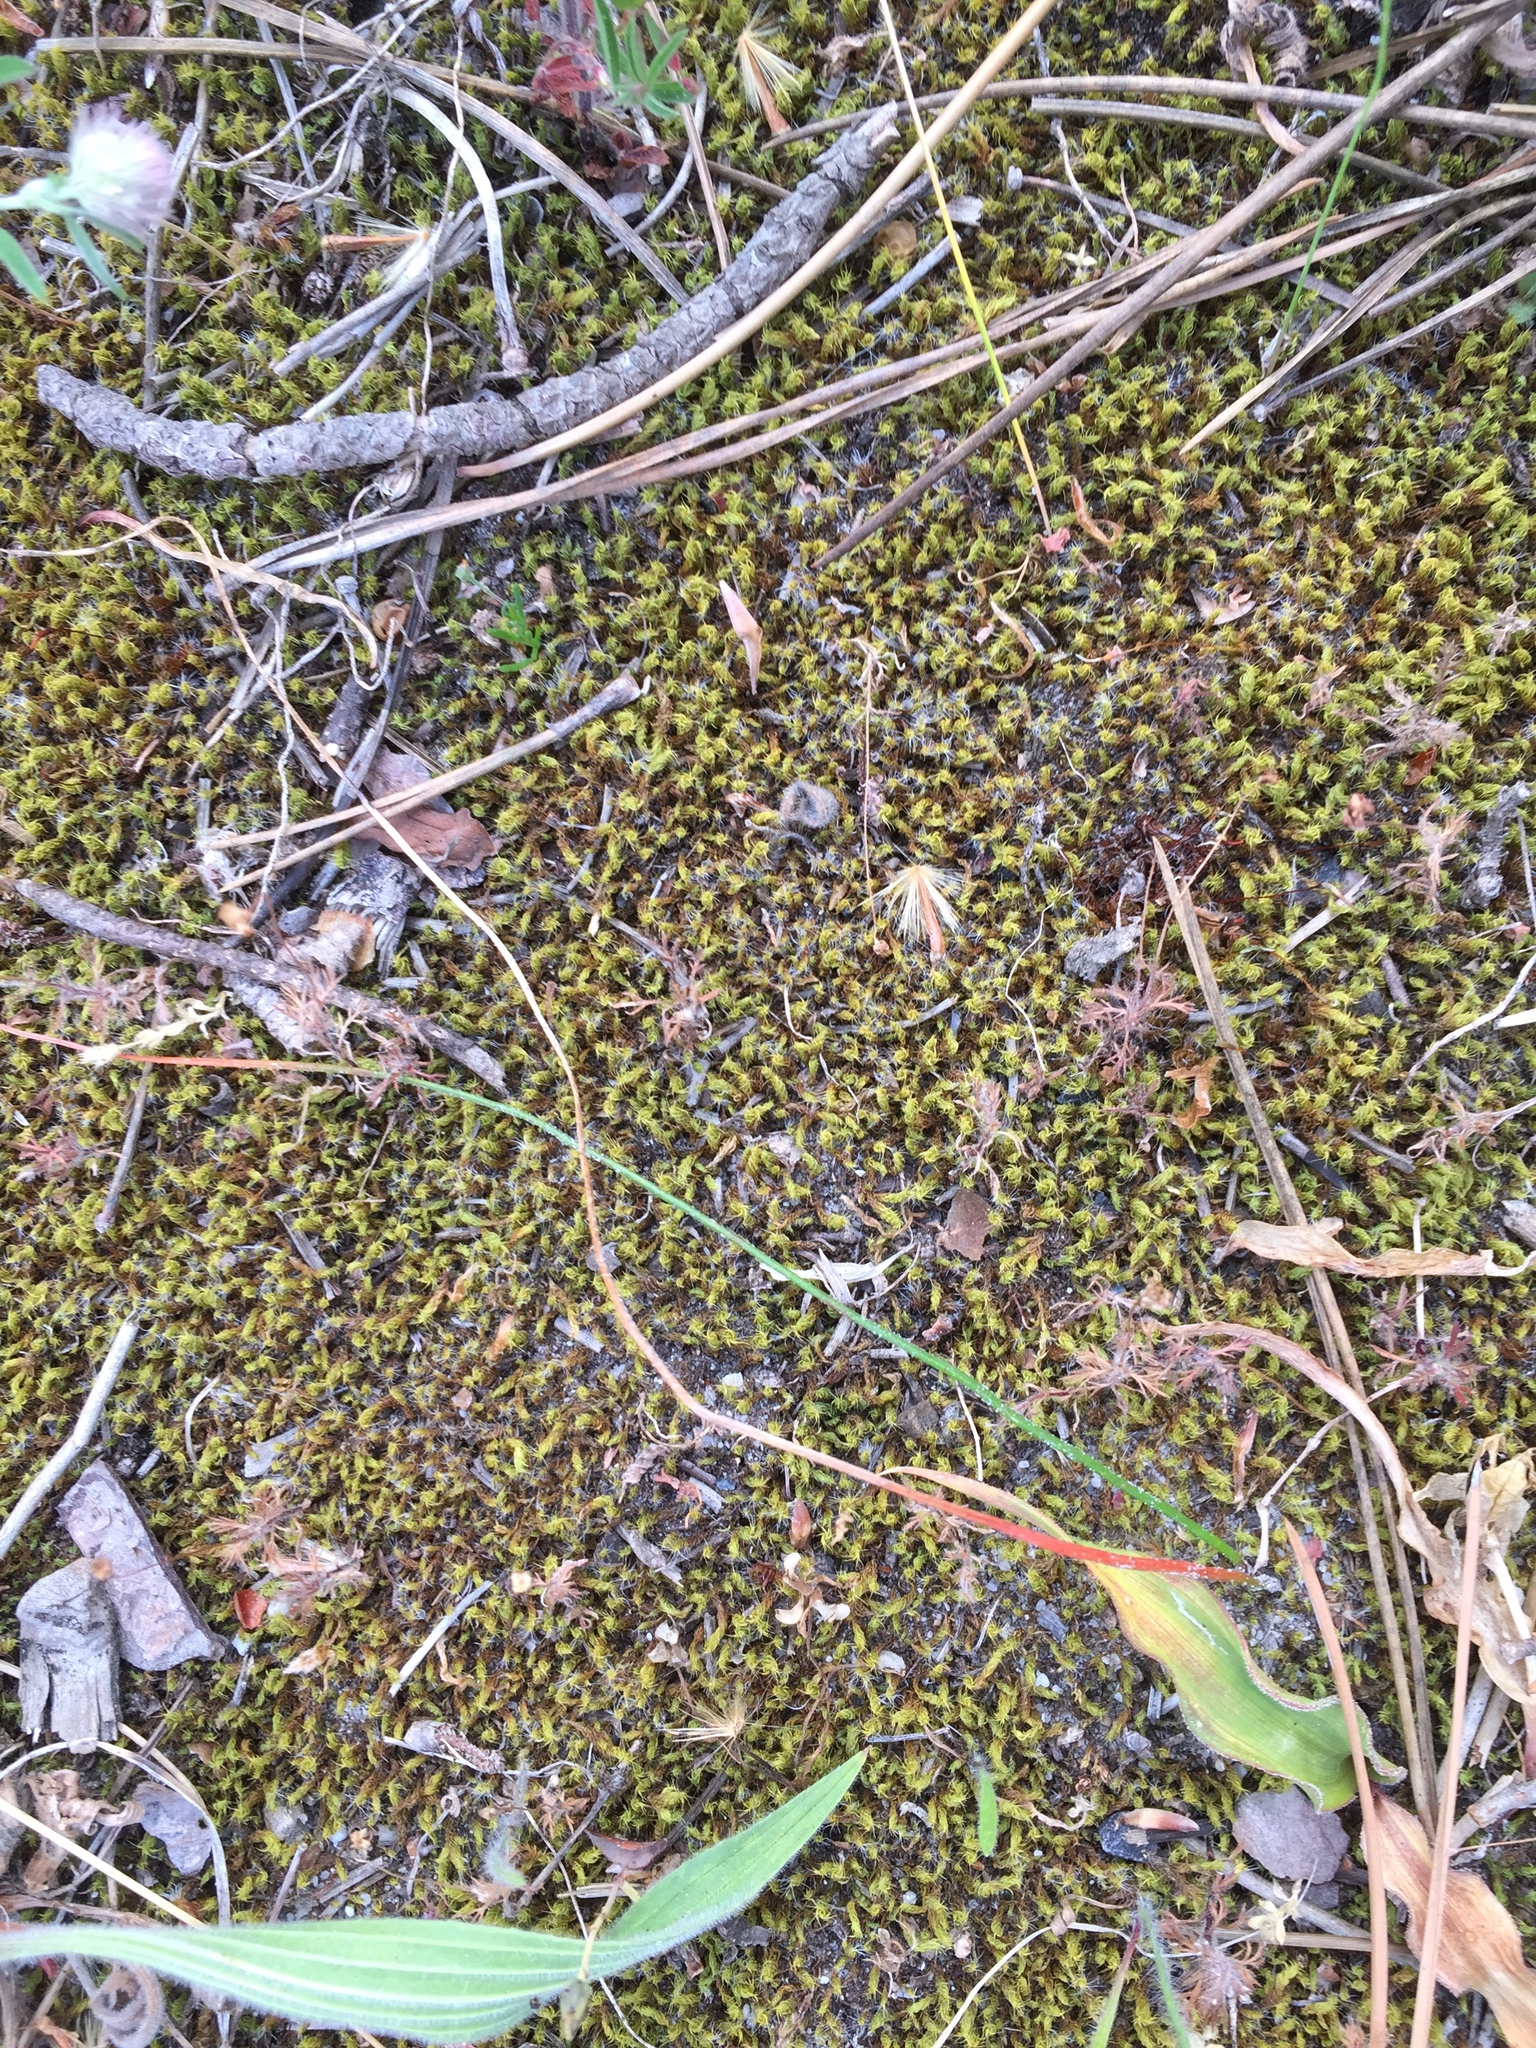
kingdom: Plantae
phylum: Bryophyta
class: Bryopsida
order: Pottiales
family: Pottiaceae
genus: Pseudocrossidium
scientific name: Pseudocrossidium crinitum
